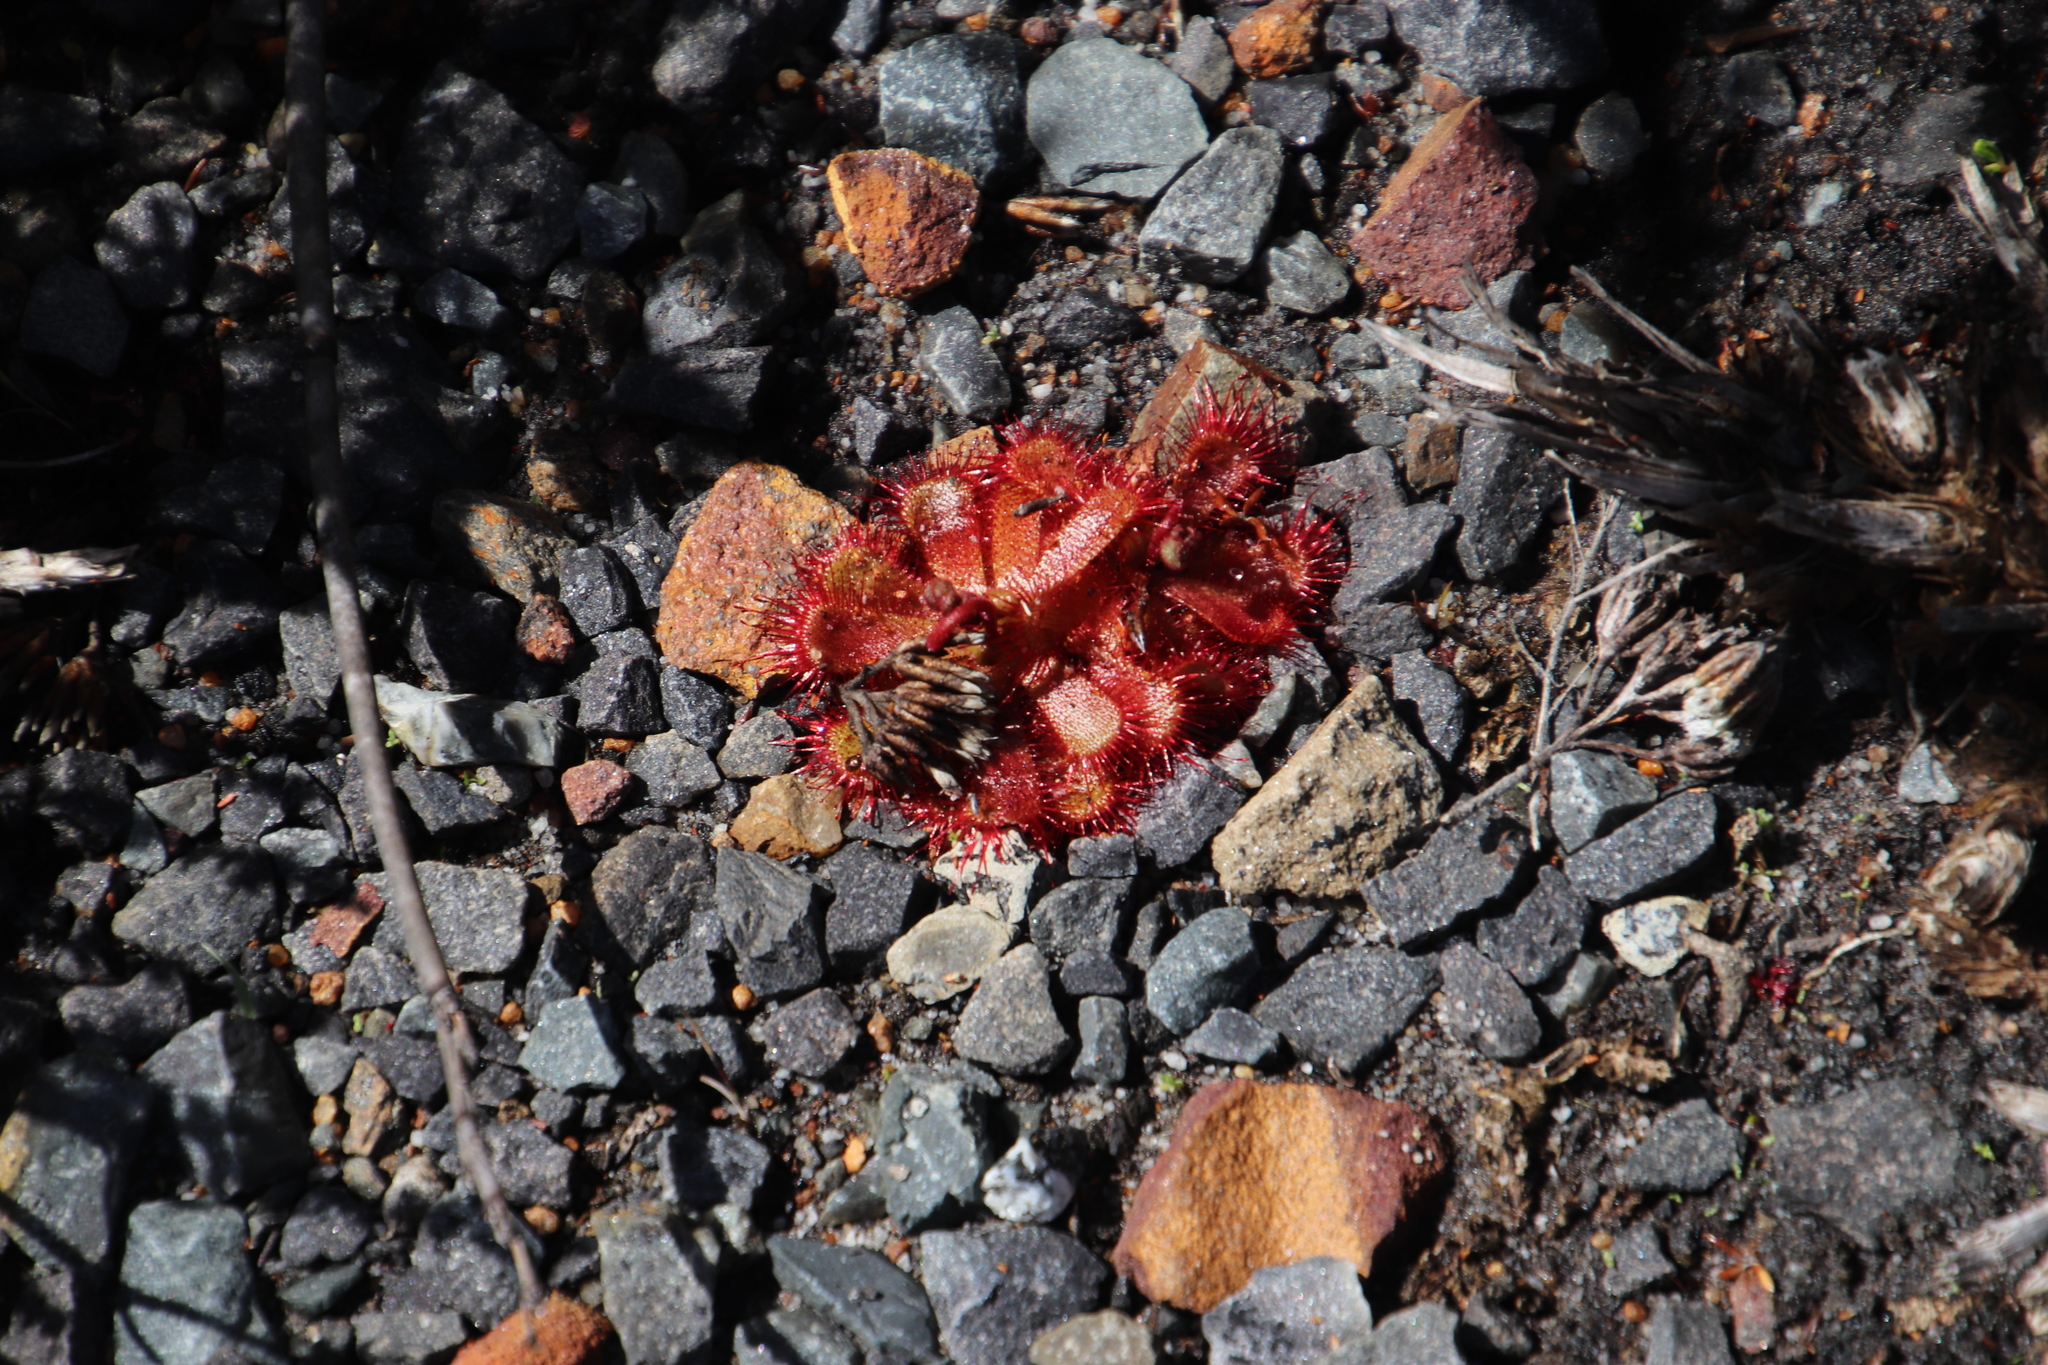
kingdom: Plantae
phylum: Tracheophyta
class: Magnoliopsida
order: Caryophyllales
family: Droseraceae
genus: Drosera
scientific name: Drosera trinervia
